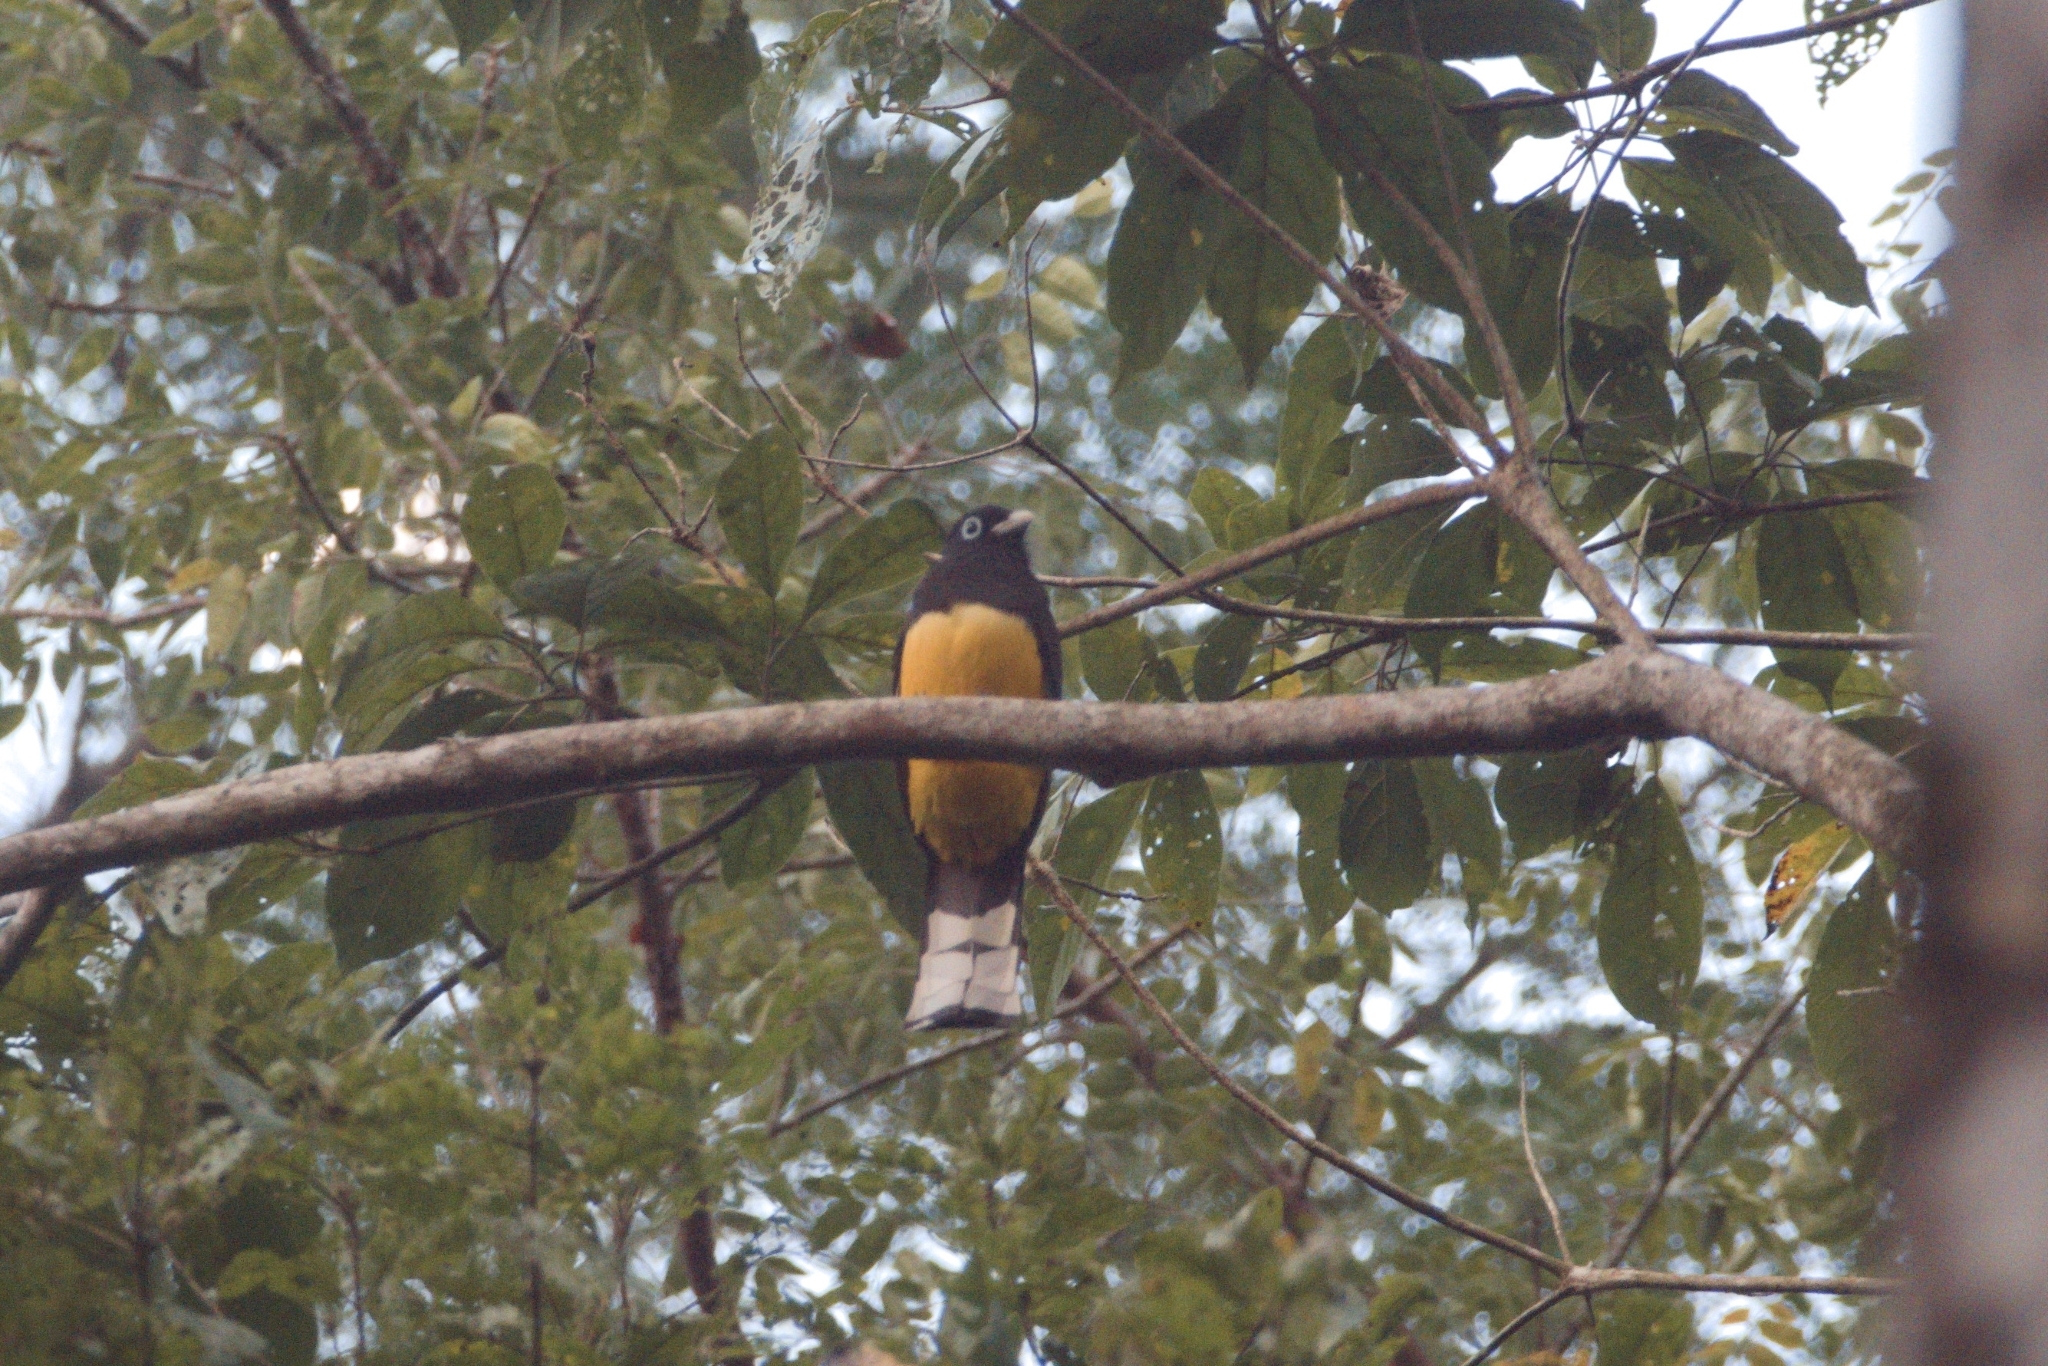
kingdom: Animalia
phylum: Chordata
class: Aves
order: Trogoniformes
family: Trogonidae
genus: Trogon
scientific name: Trogon melanocephalus
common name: Black-headed trogon
